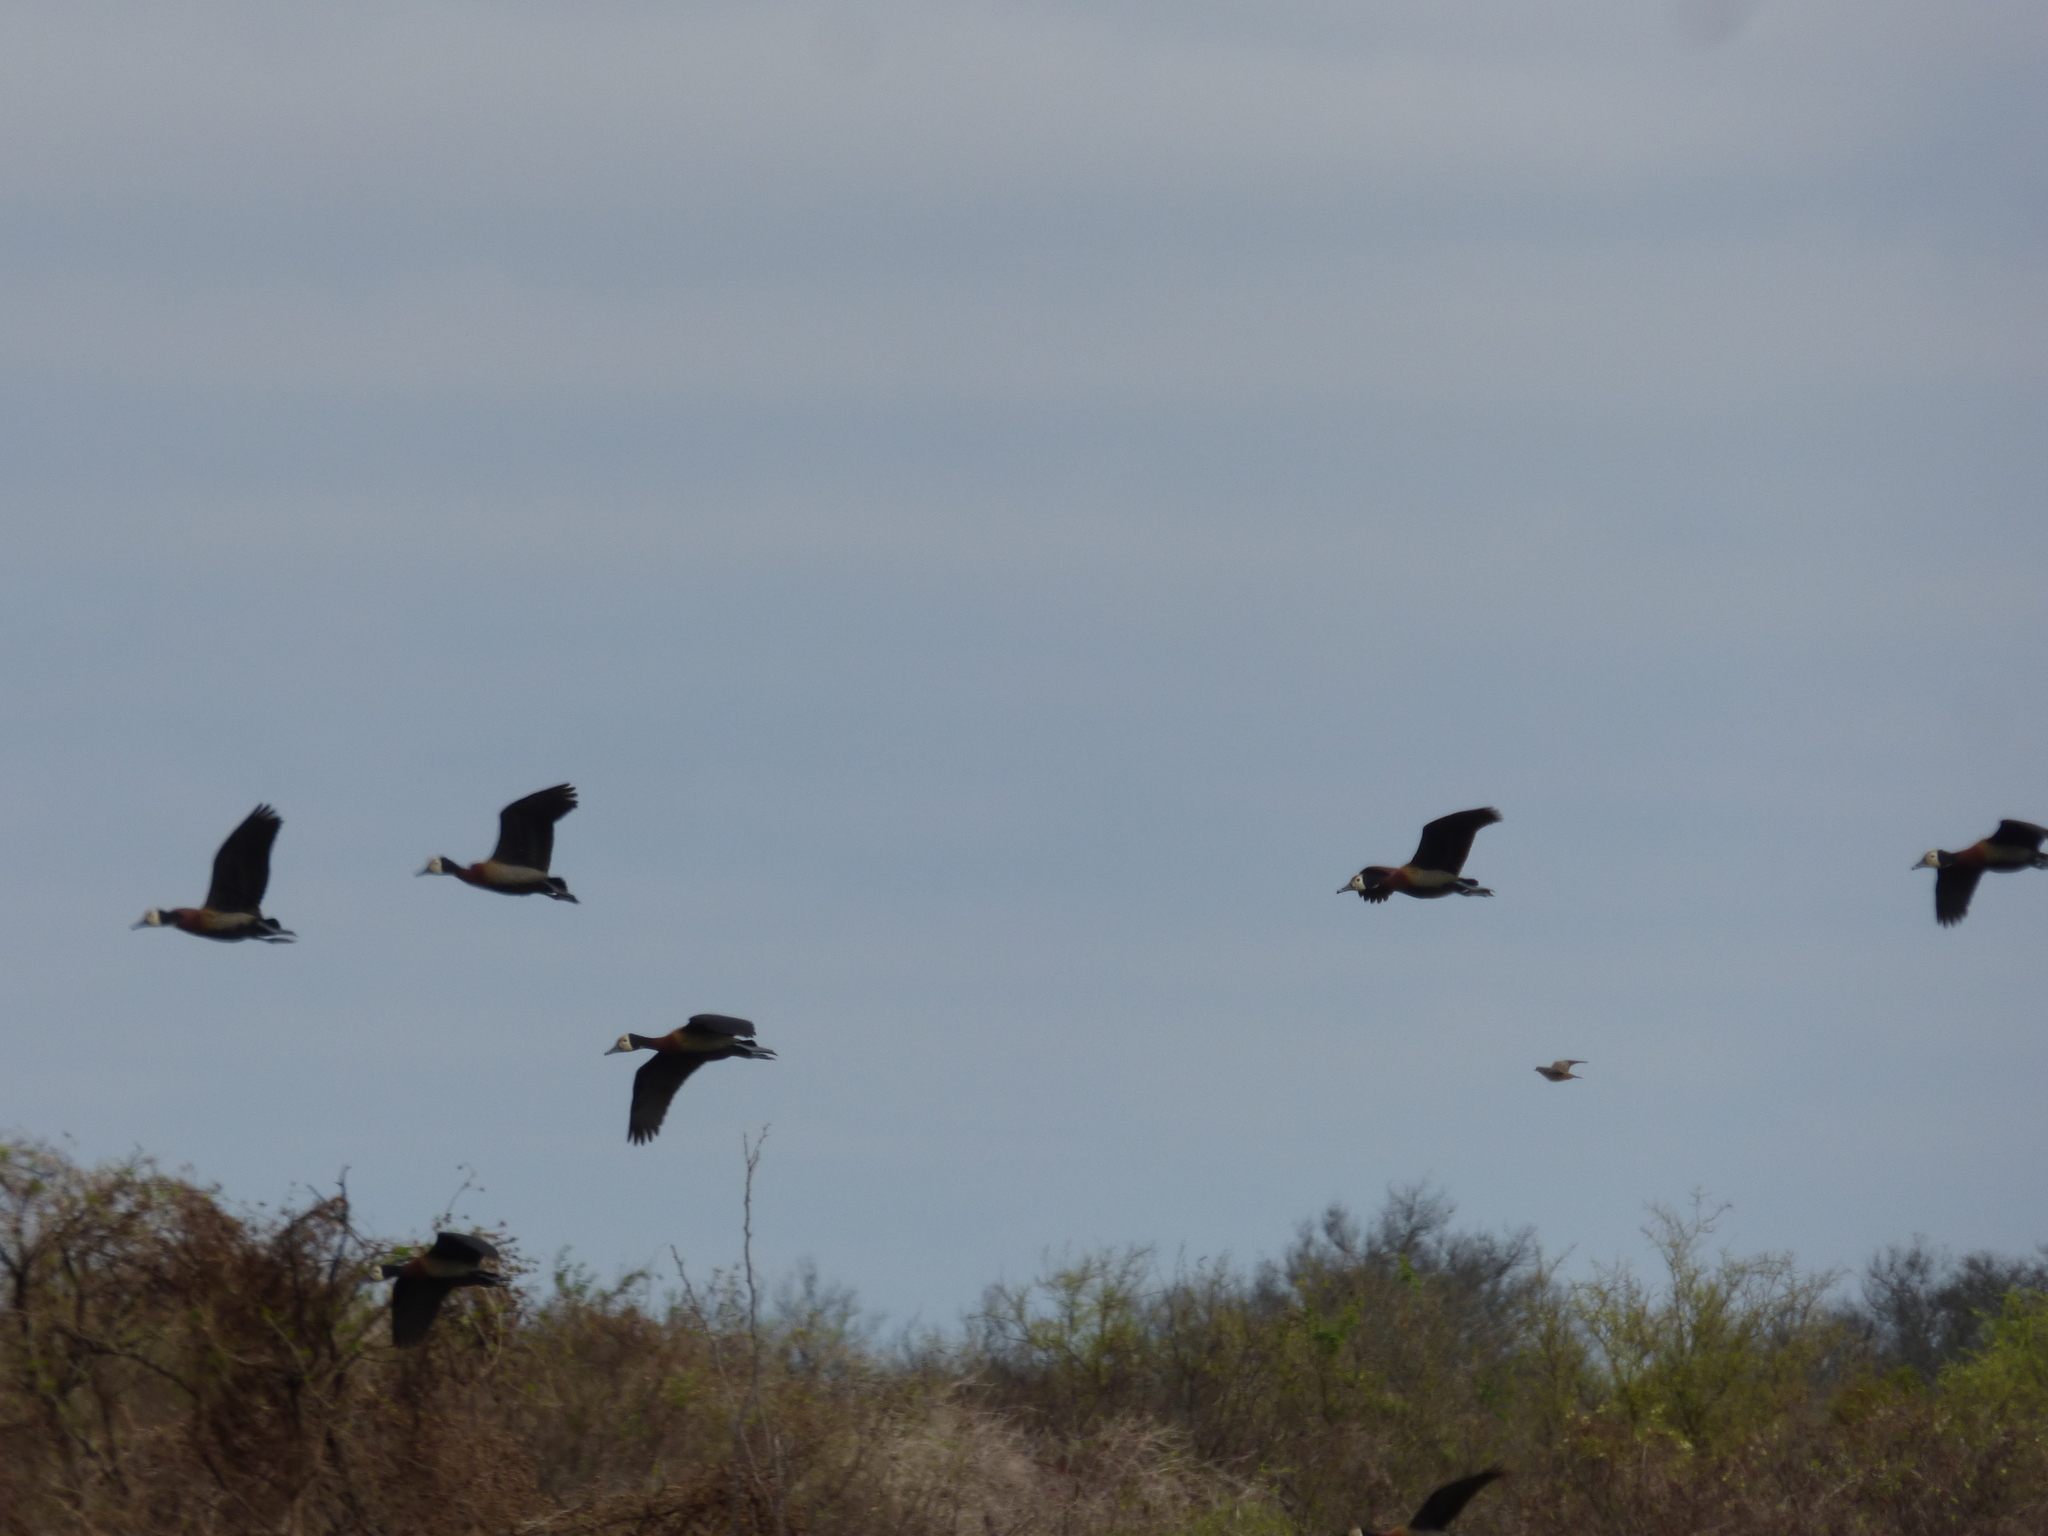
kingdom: Animalia
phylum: Chordata
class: Aves
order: Anseriformes
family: Anatidae
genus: Dendrocygna
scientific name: Dendrocygna viduata
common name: White-faced whistling duck
